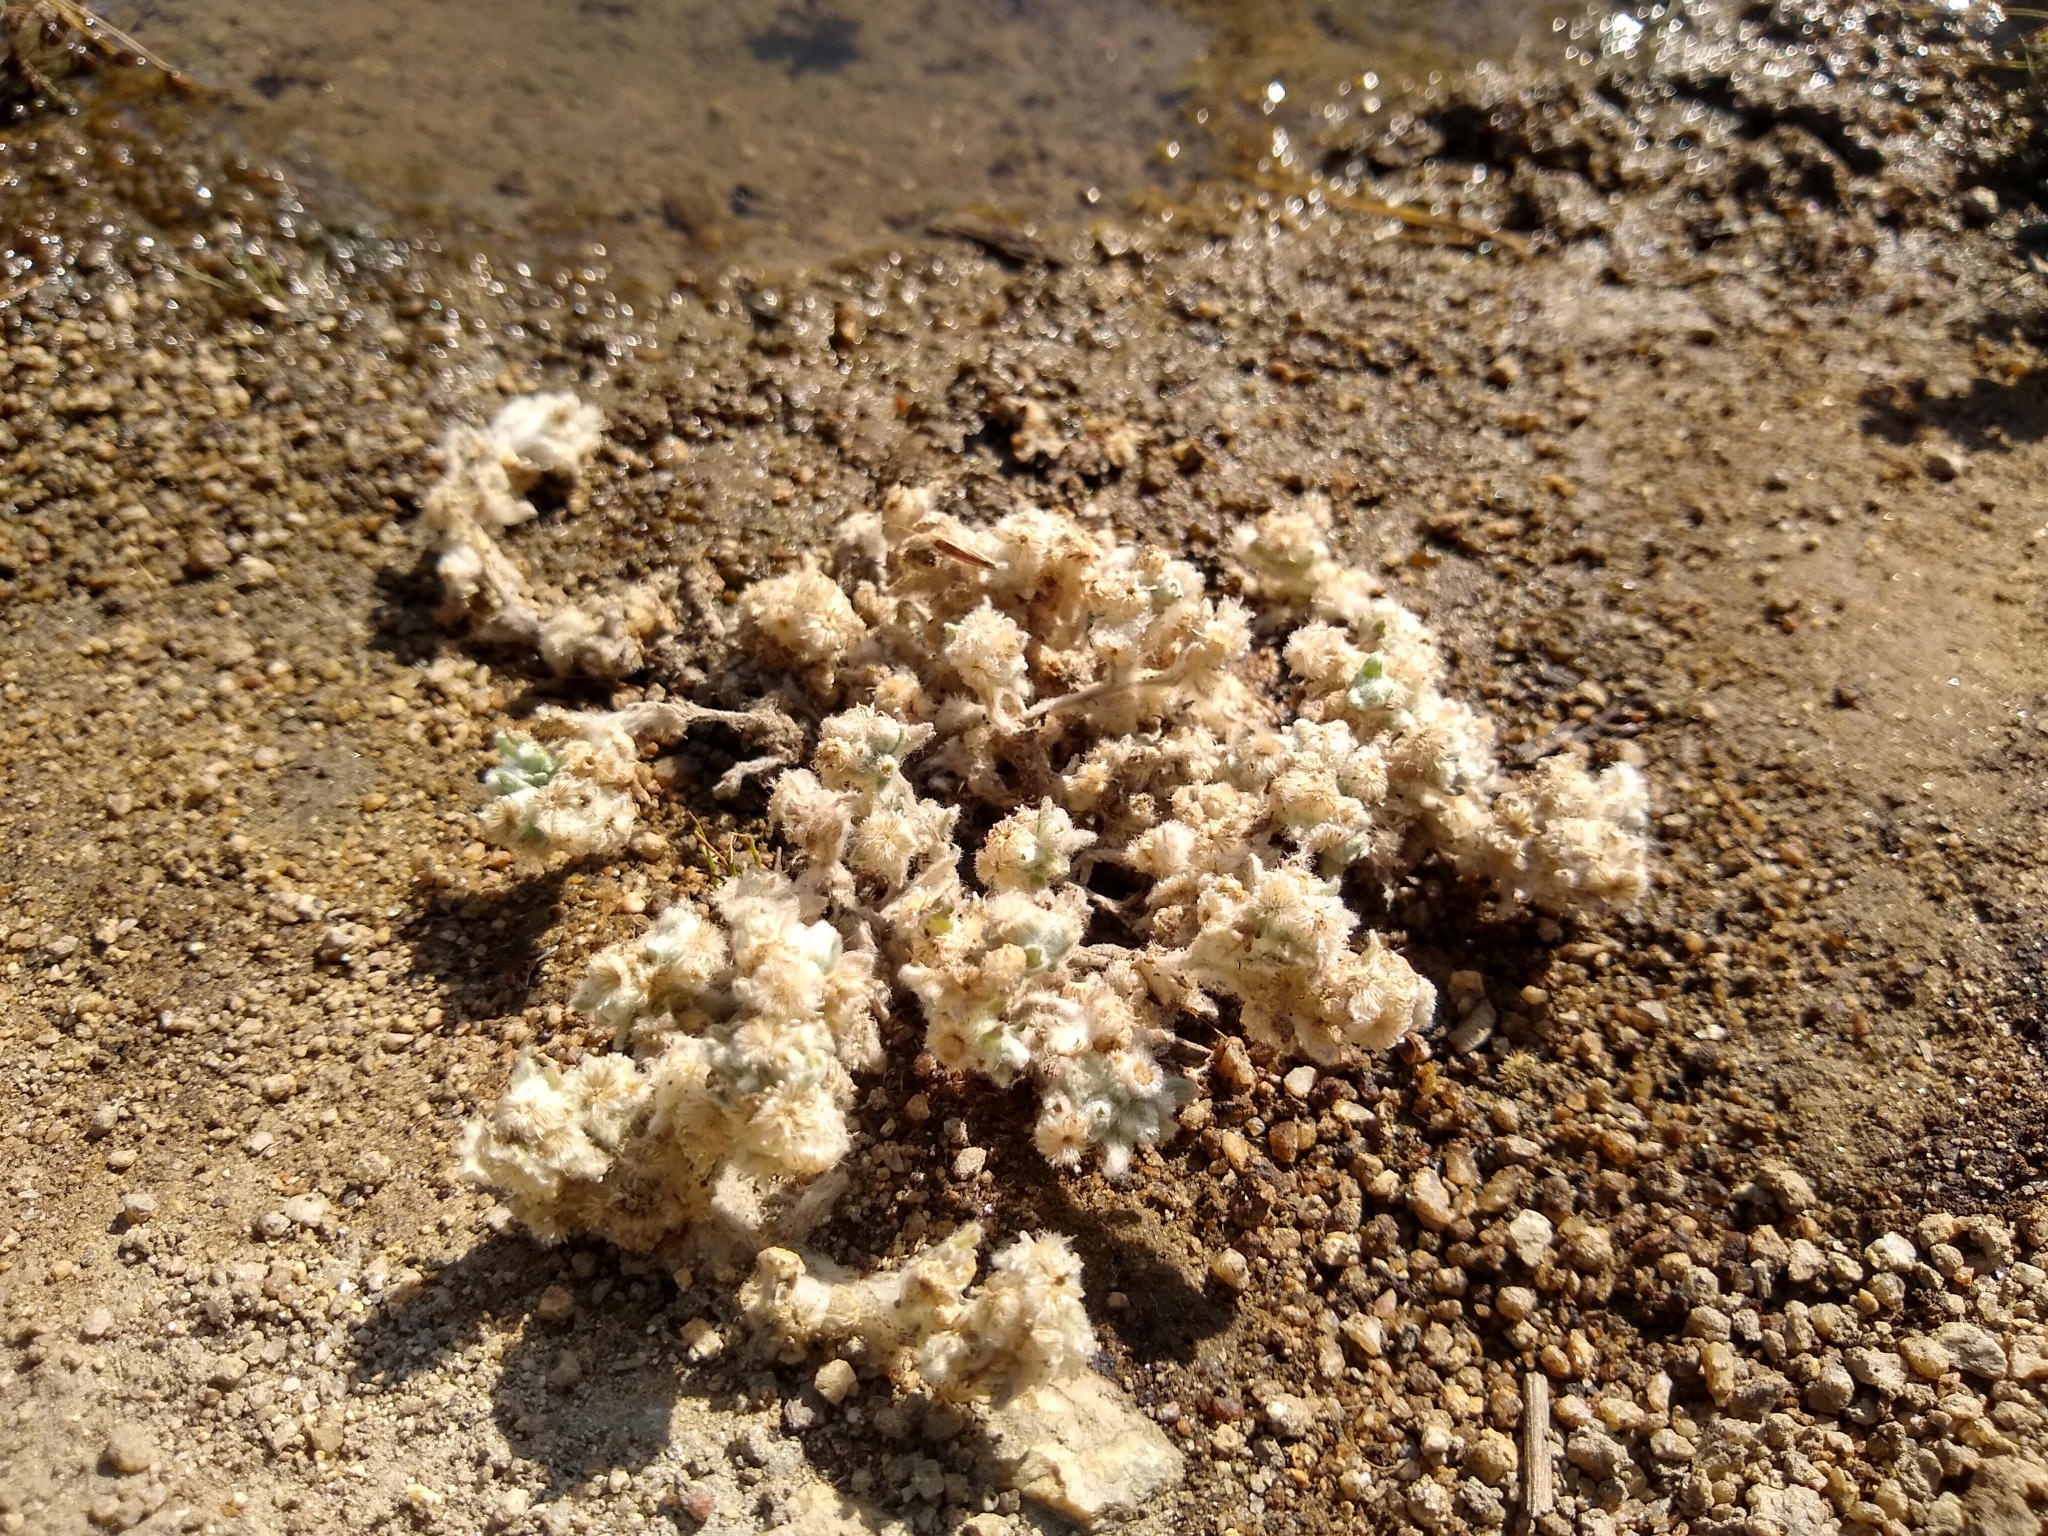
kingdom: Plantae
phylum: Tracheophyta
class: Magnoliopsida
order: Asterales
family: Asteraceae
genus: Gnaphalium
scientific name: Gnaphalium palustre
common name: Western marsh cudweed
